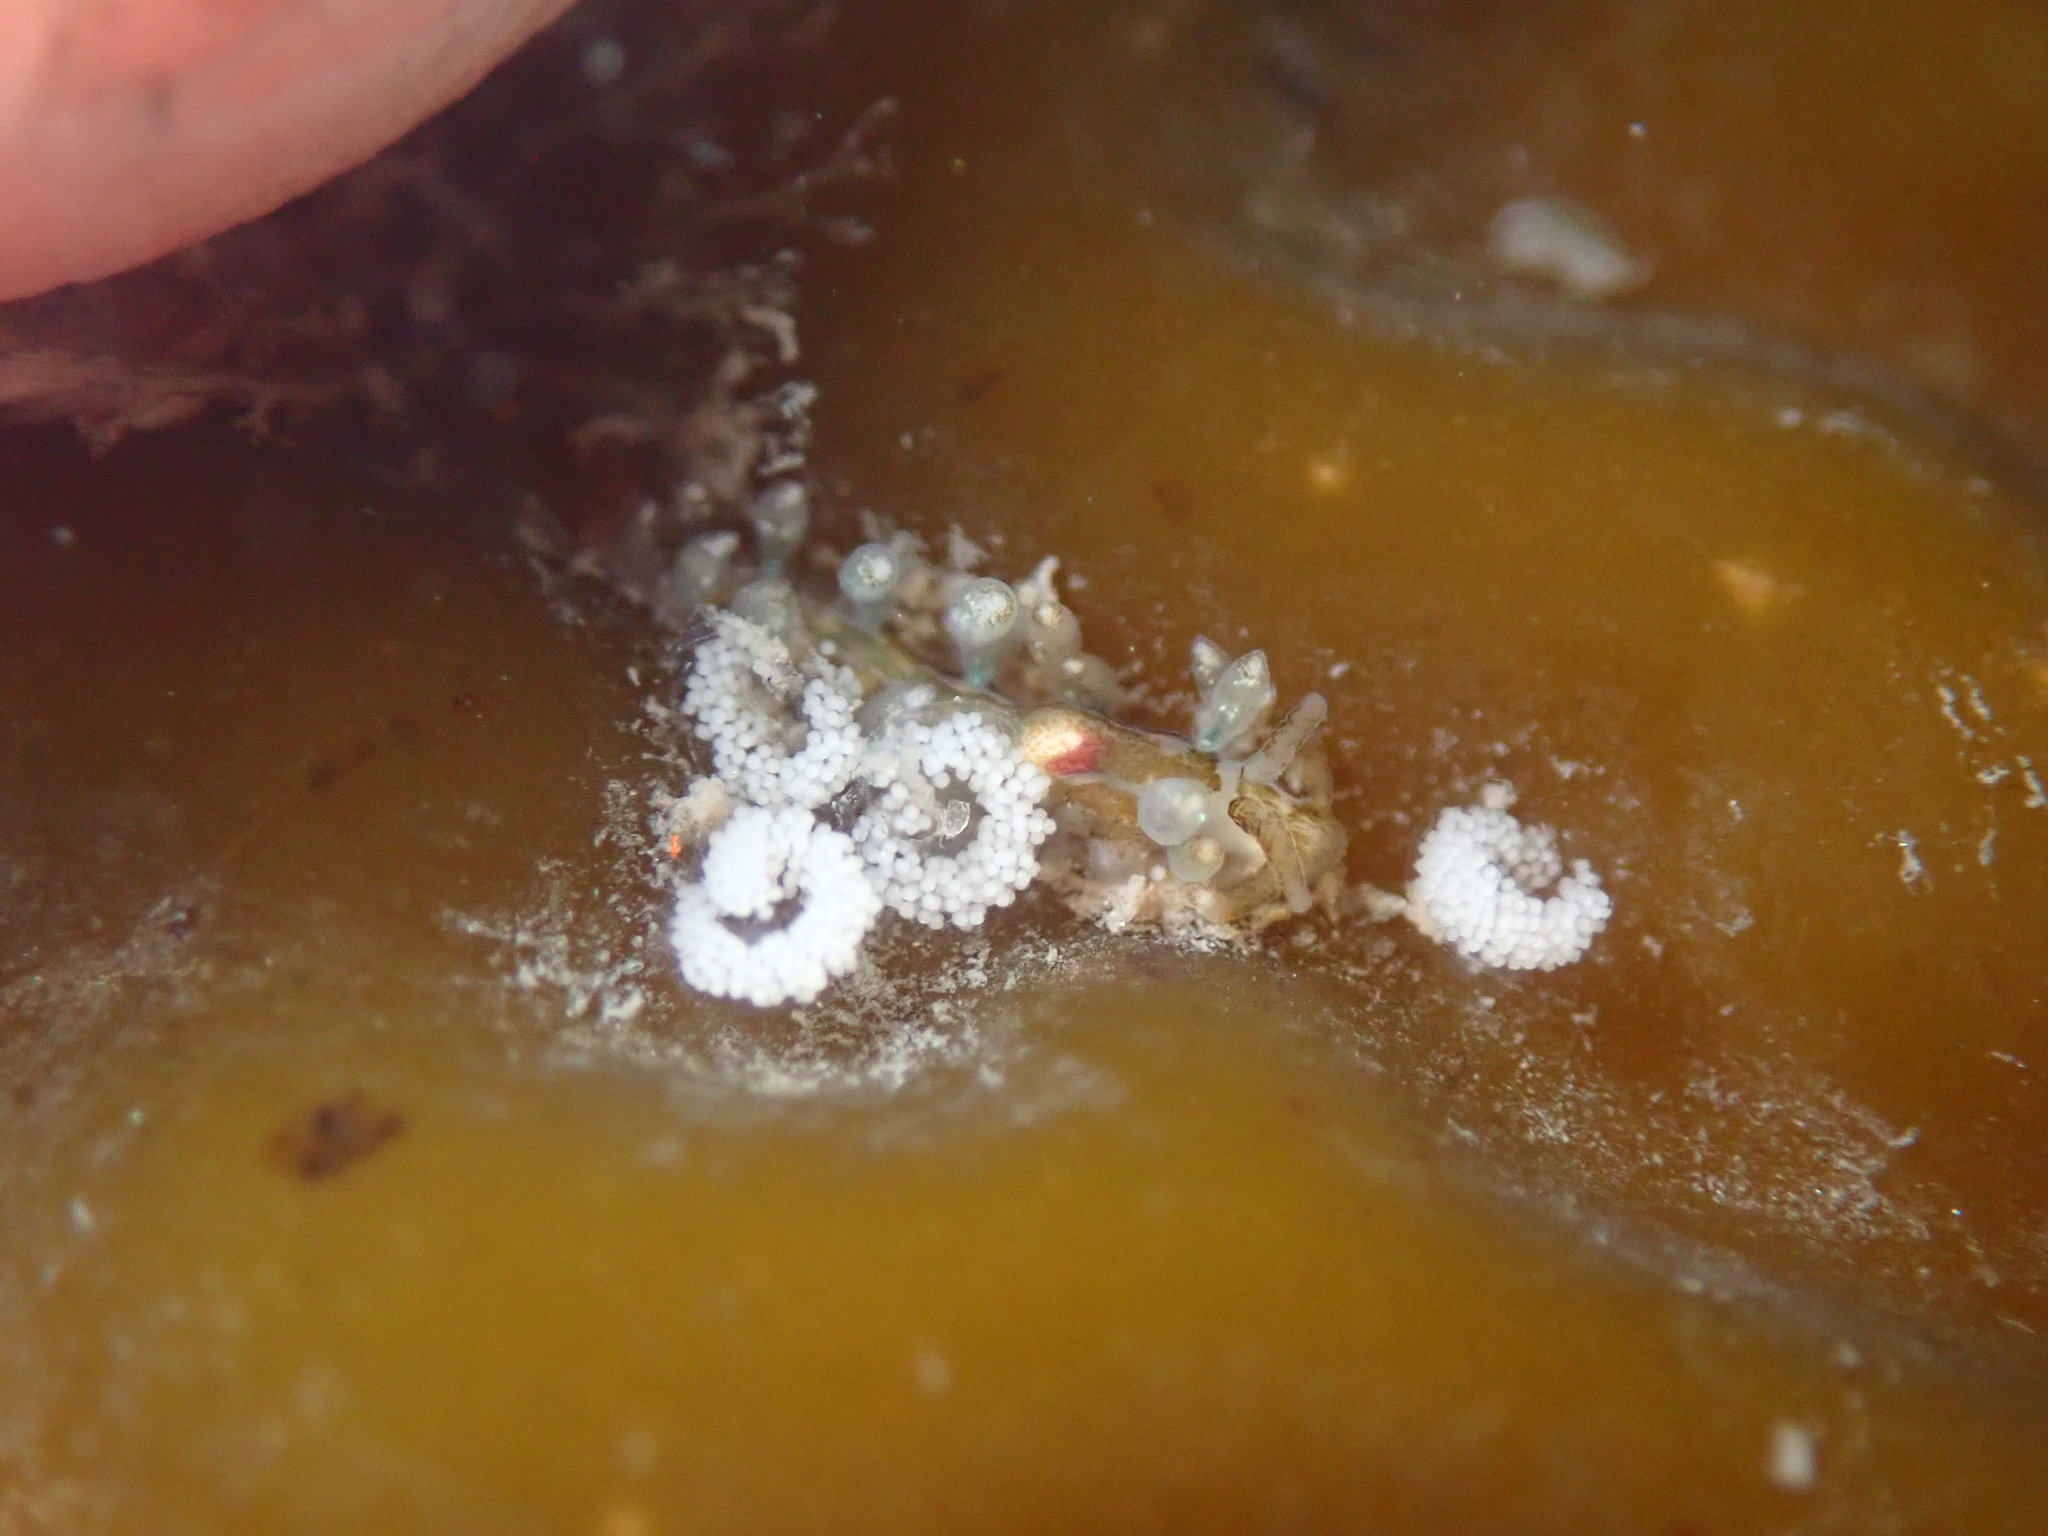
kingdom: Animalia
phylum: Mollusca
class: Gastropoda
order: Nudibranchia
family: Eubranchidae
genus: Eubranchus
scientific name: Eubranchus rustyus
